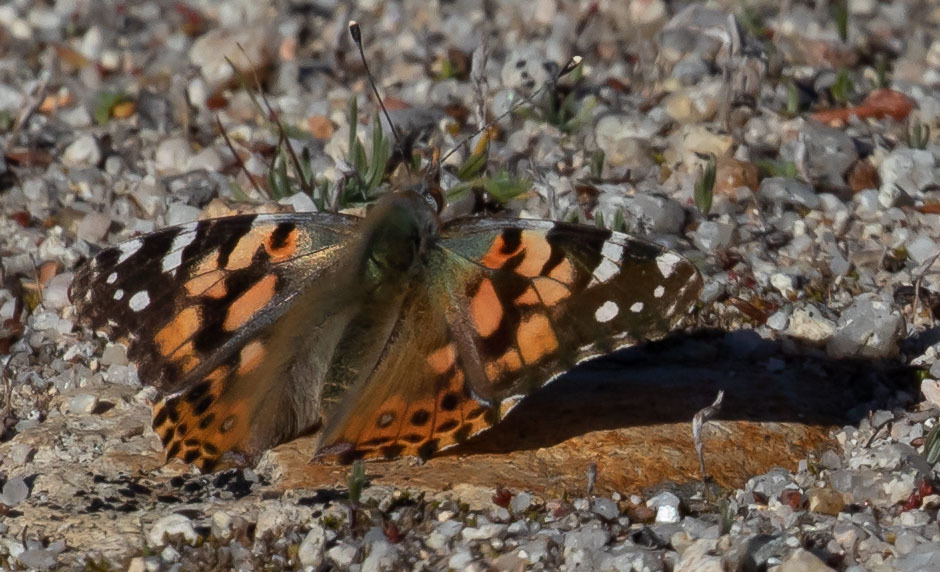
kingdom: Animalia
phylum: Arthropoda
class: Insecta
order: Lepidoptera
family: Nymphalidae
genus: Vanessa
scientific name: Vanessa cardui
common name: Painted lady
